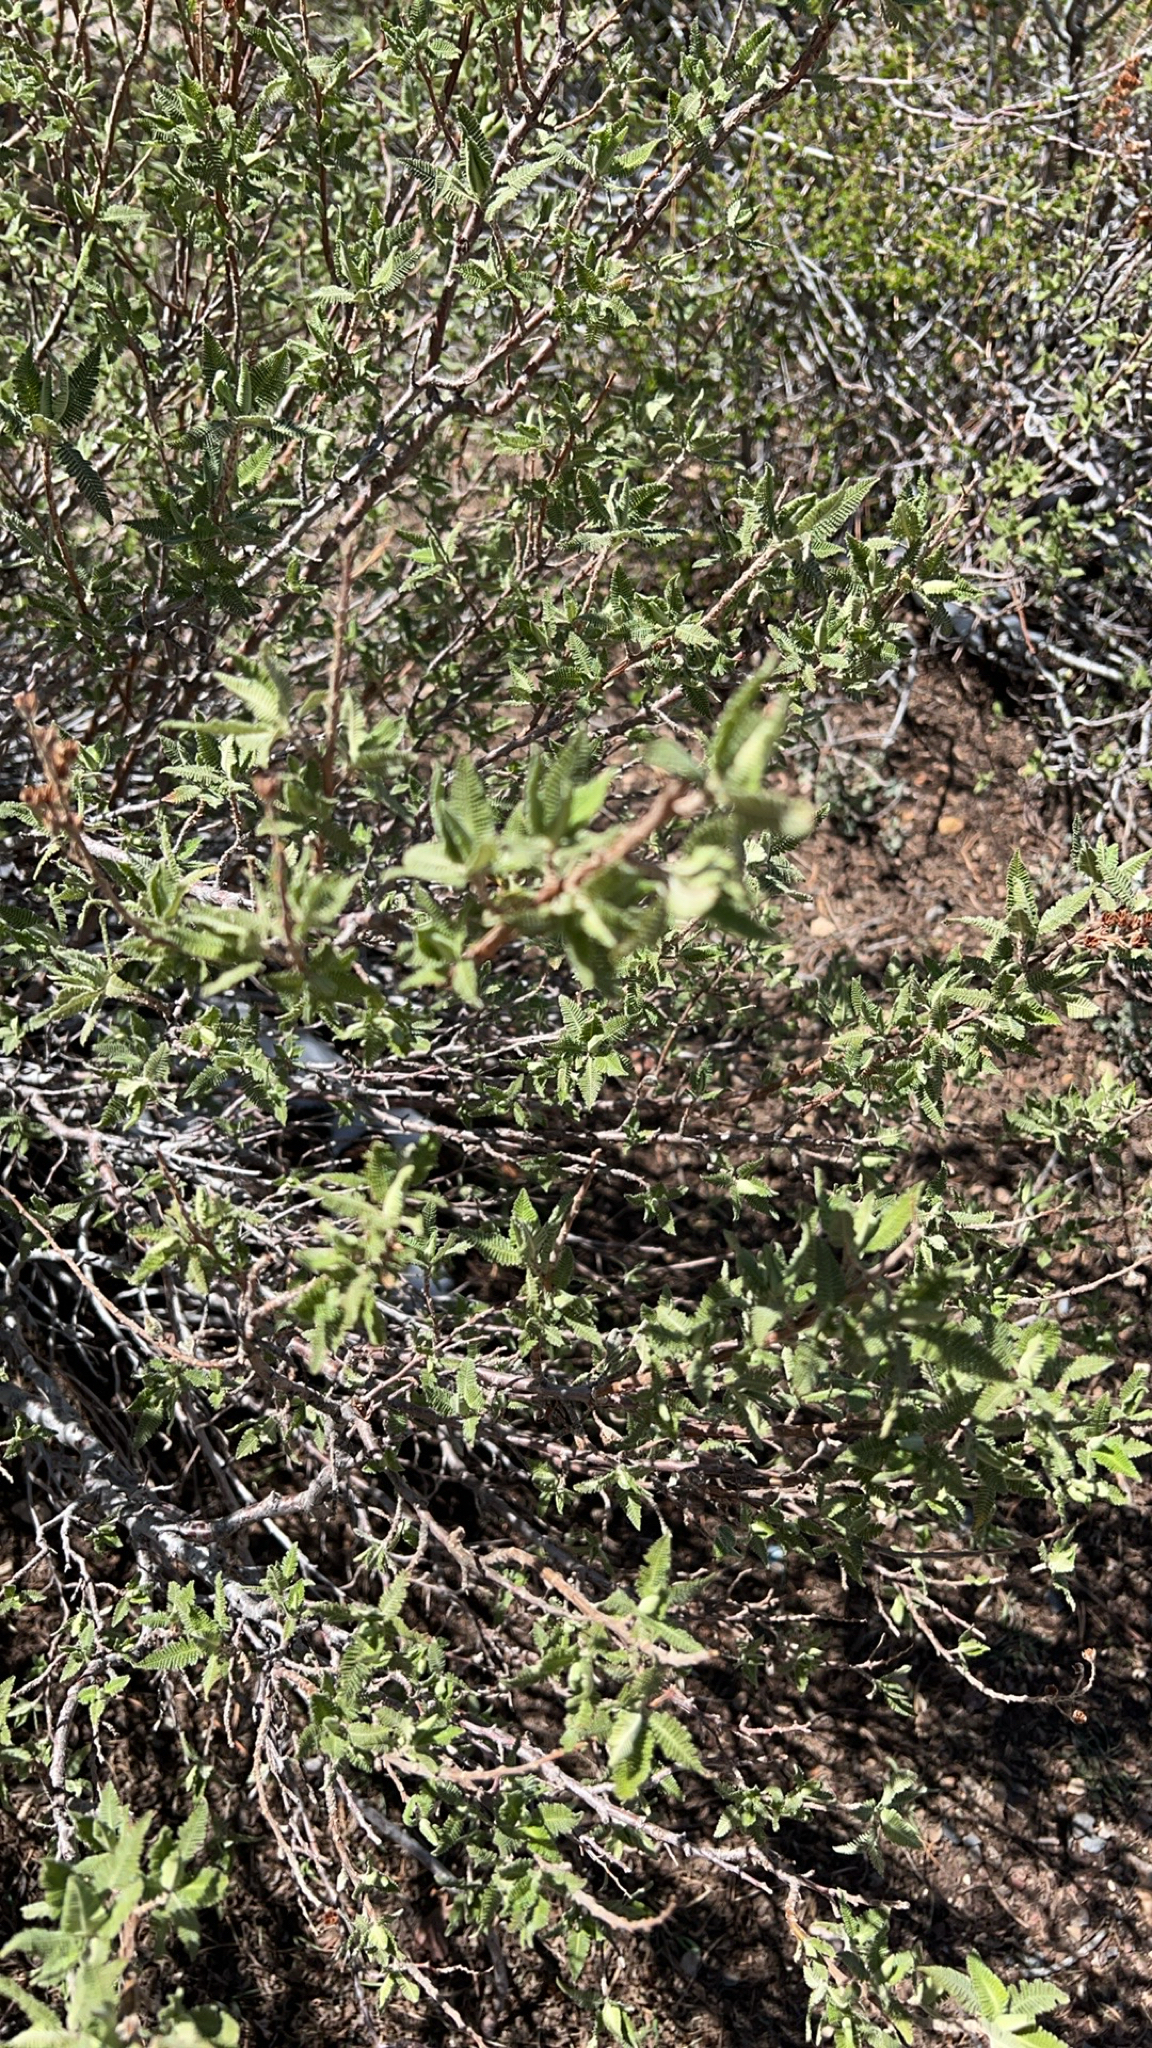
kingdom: Plantae
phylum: Tracheophyta
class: Magnoliopsida
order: Rosales
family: Rosaceae
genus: Chamaebatiaria
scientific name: Chamaebatiaria millefolium
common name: Fernbush
